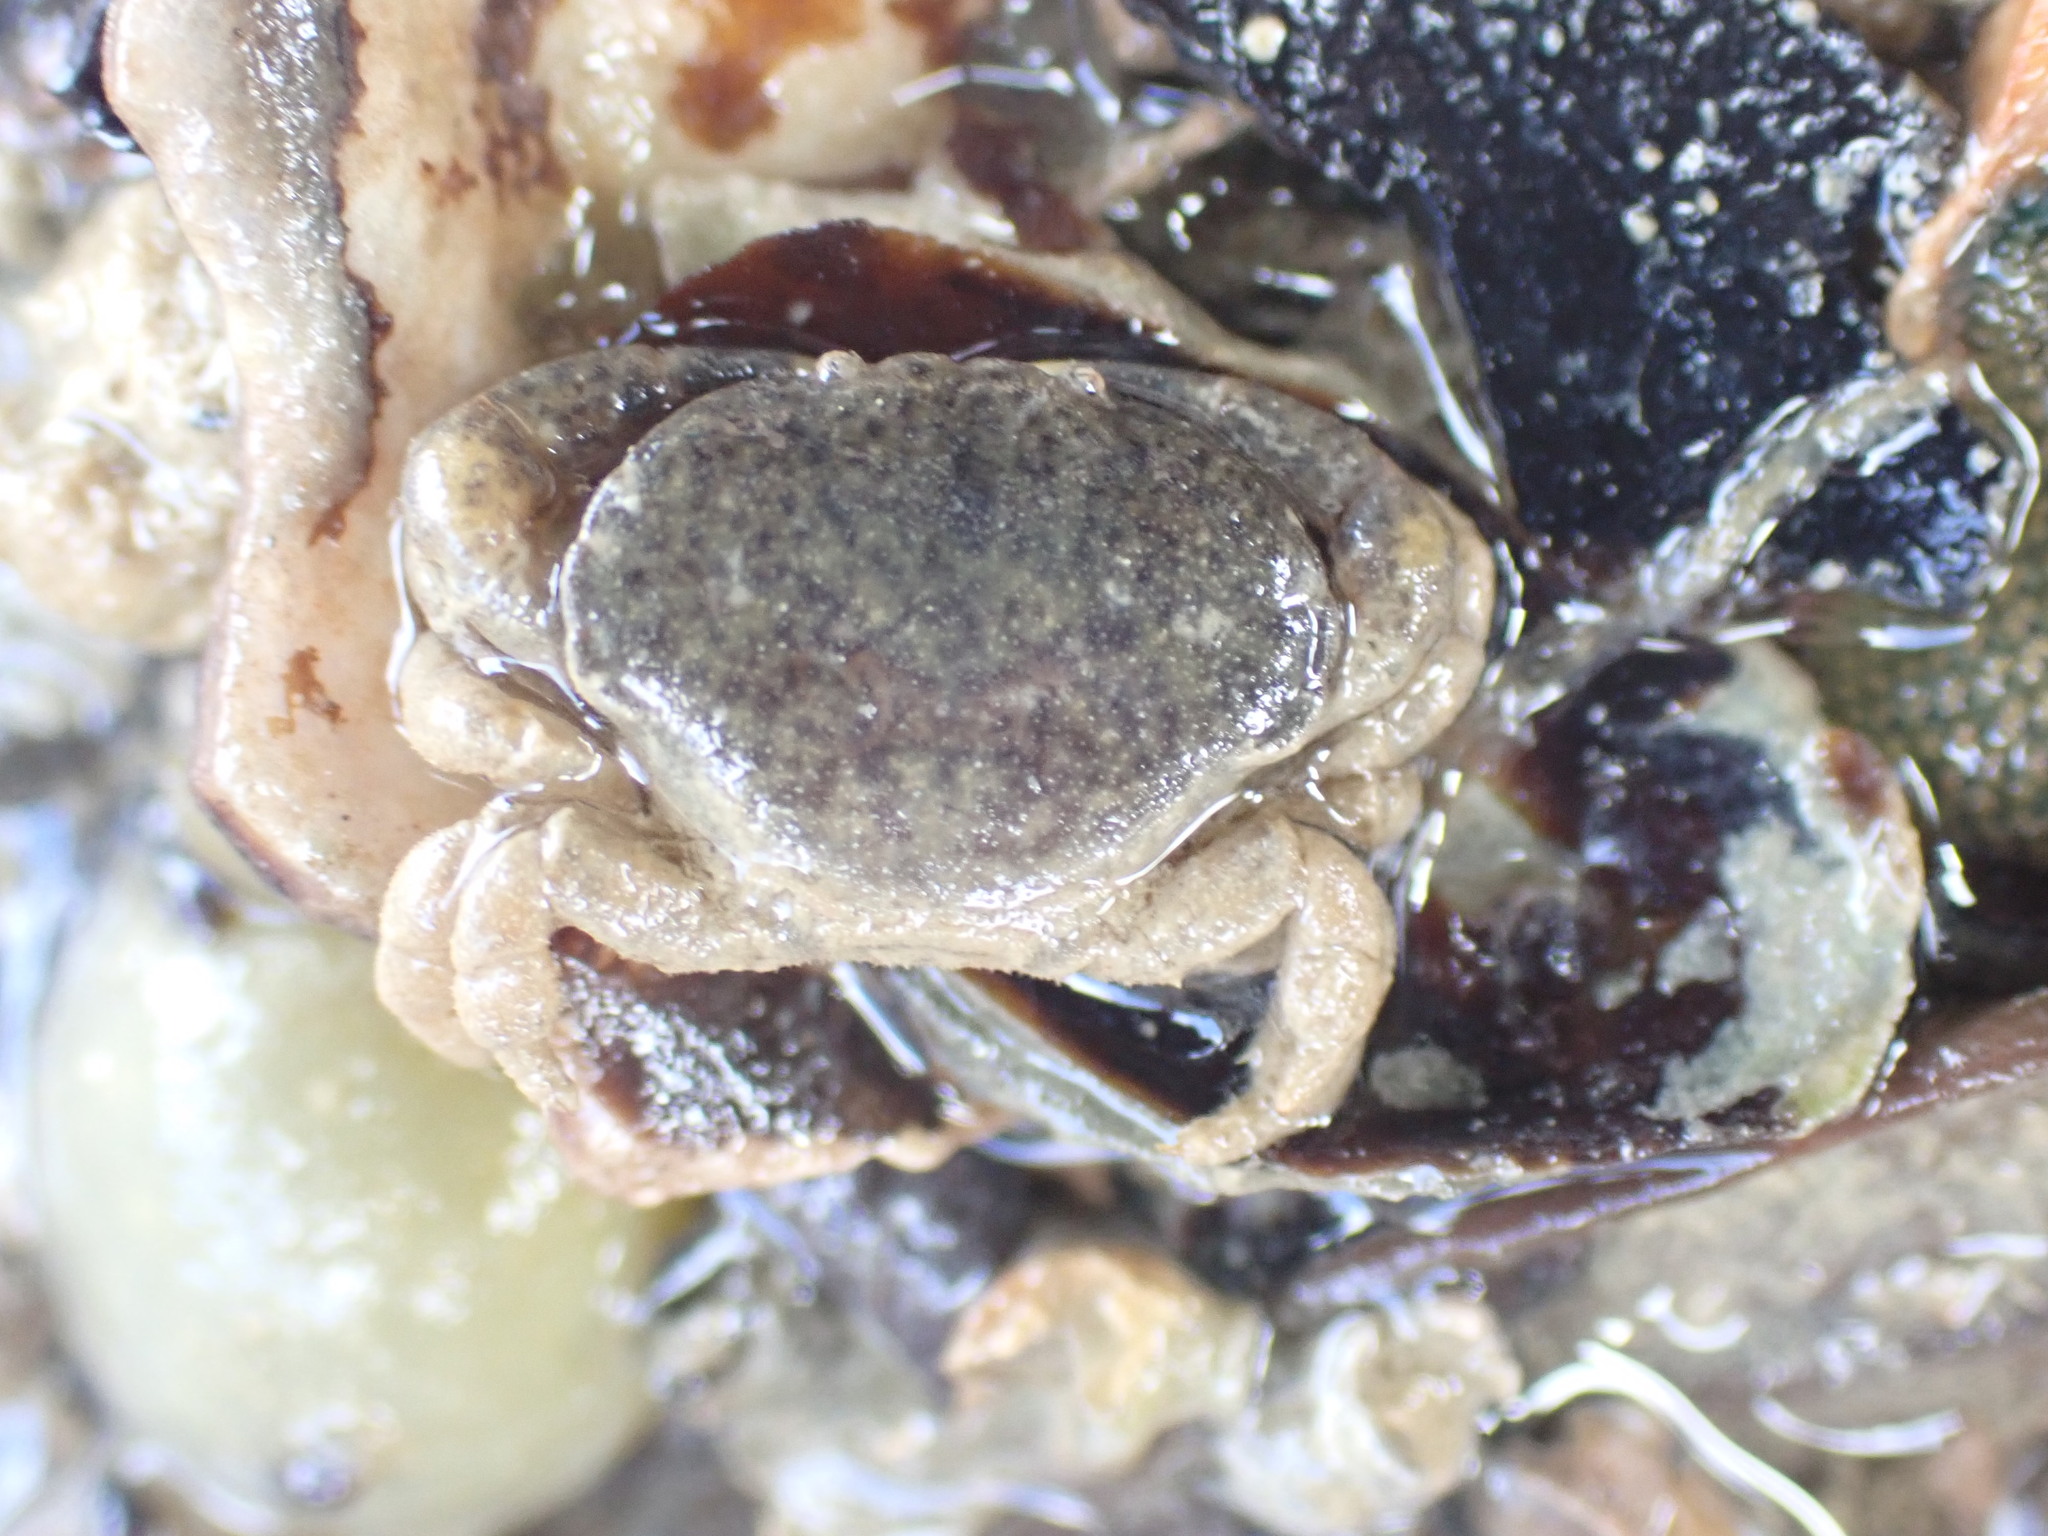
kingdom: Animalia
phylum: Arthropoda
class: Malacostraca
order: Decapoda
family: Heteroziidae
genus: Heterozius
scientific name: Heterozius rotundifrons
